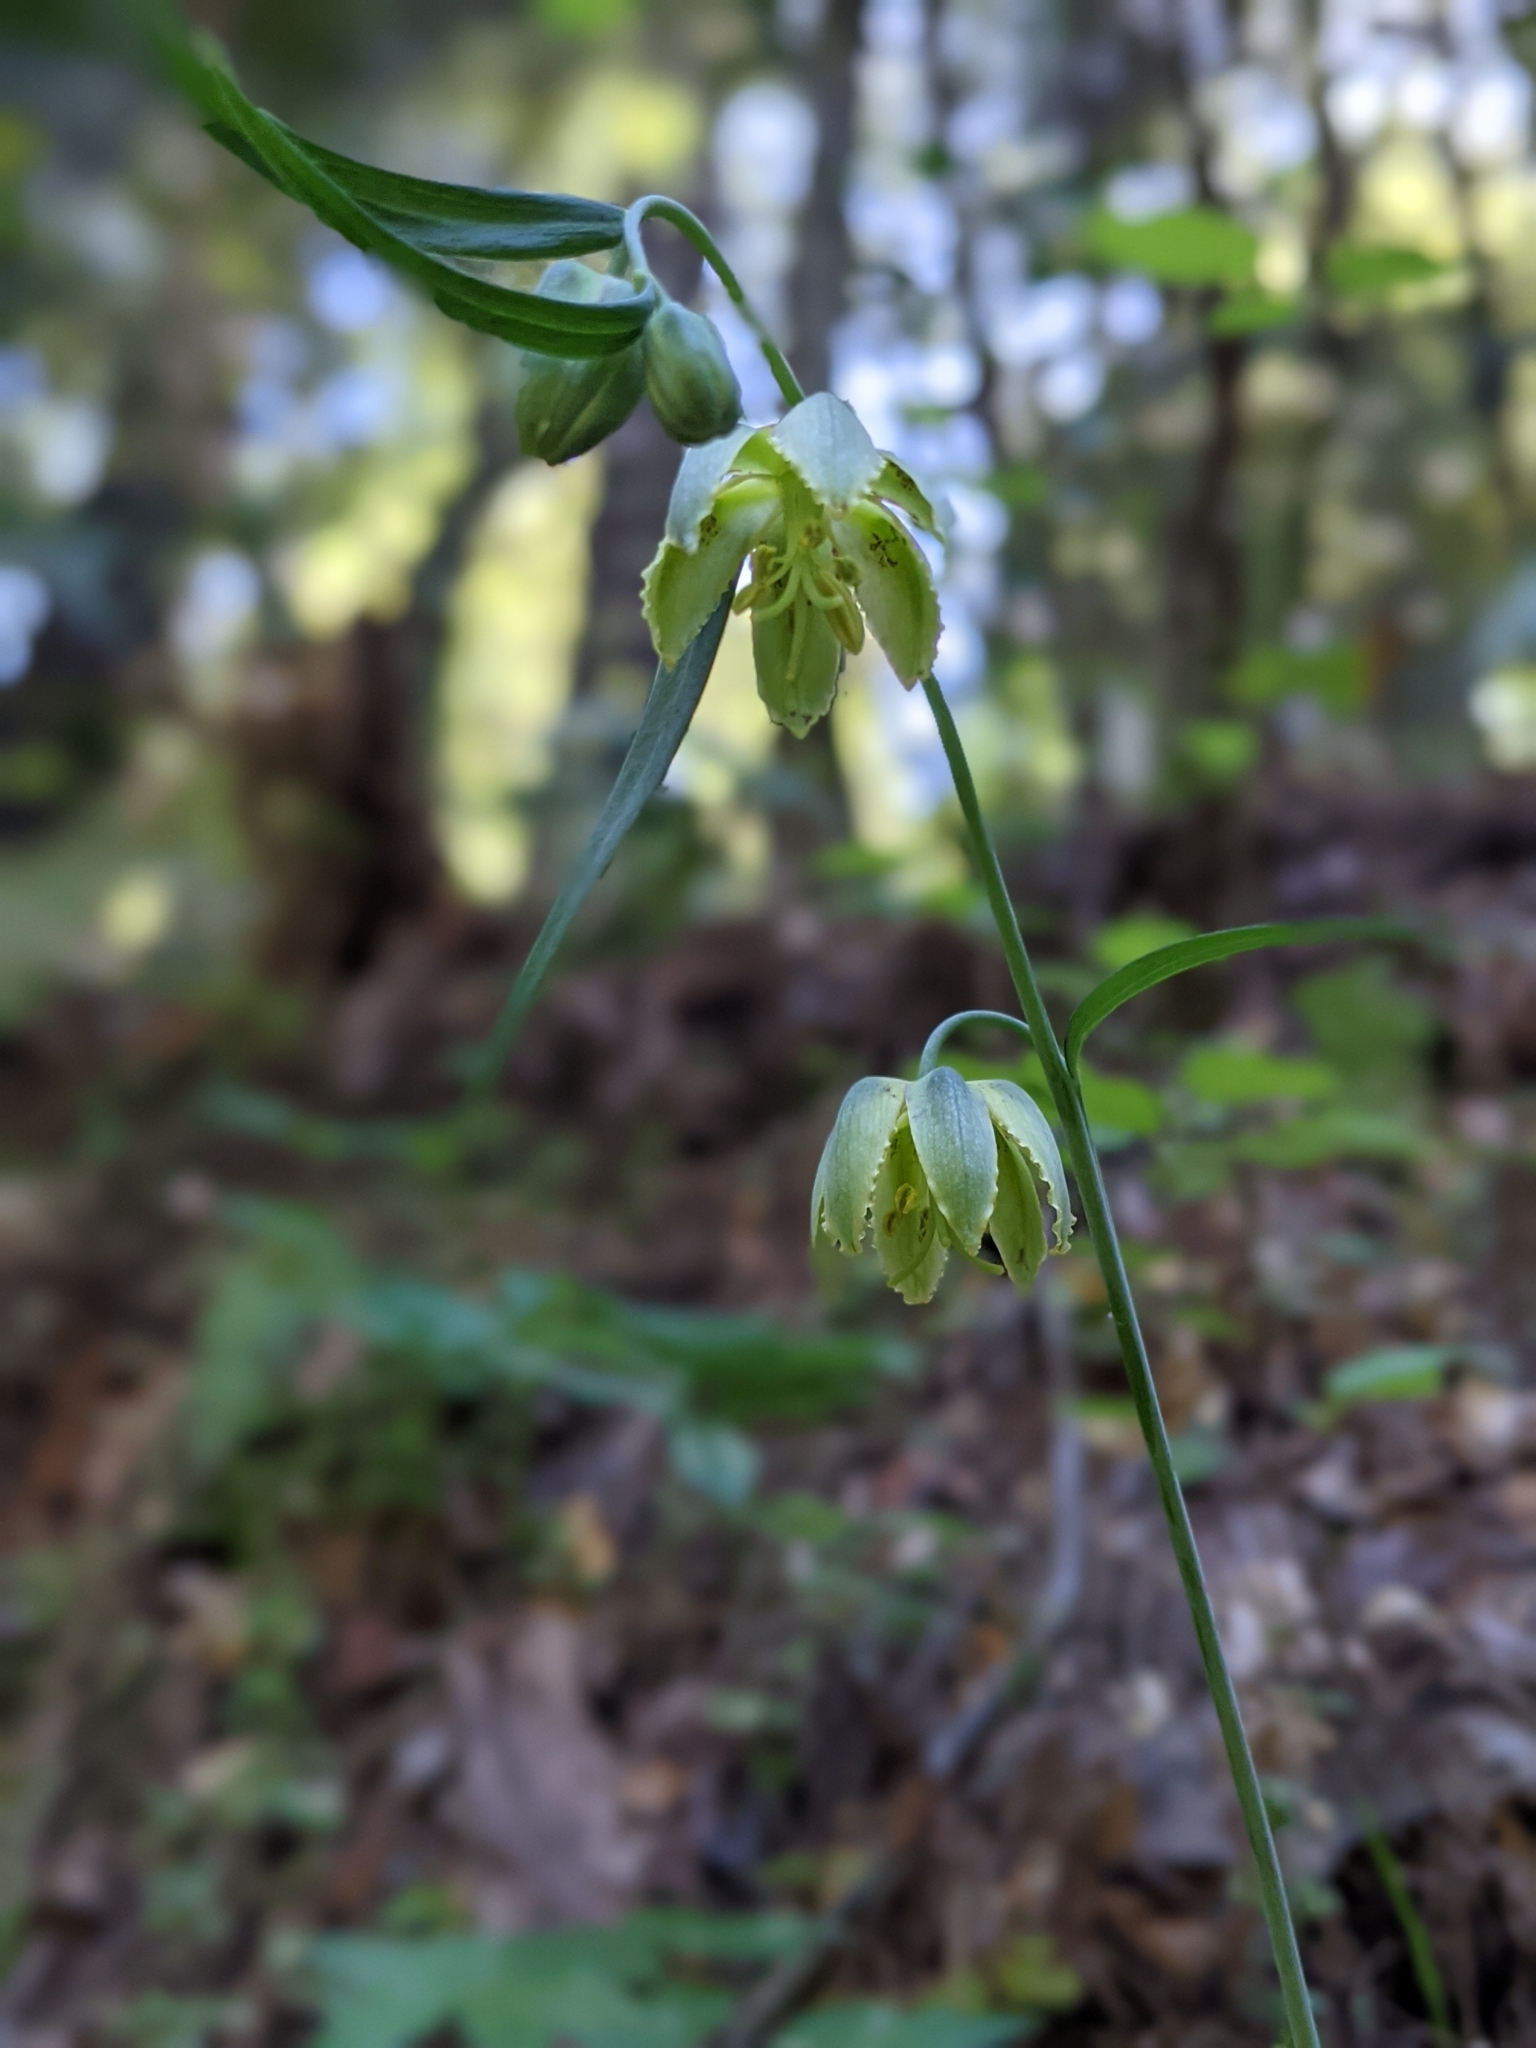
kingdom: Plantae
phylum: Tracheophyta
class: Liliopsida
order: Liliales
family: Liliaceae
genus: Fritillaria
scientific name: Fritillaria affinis
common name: Ojai fritillary
